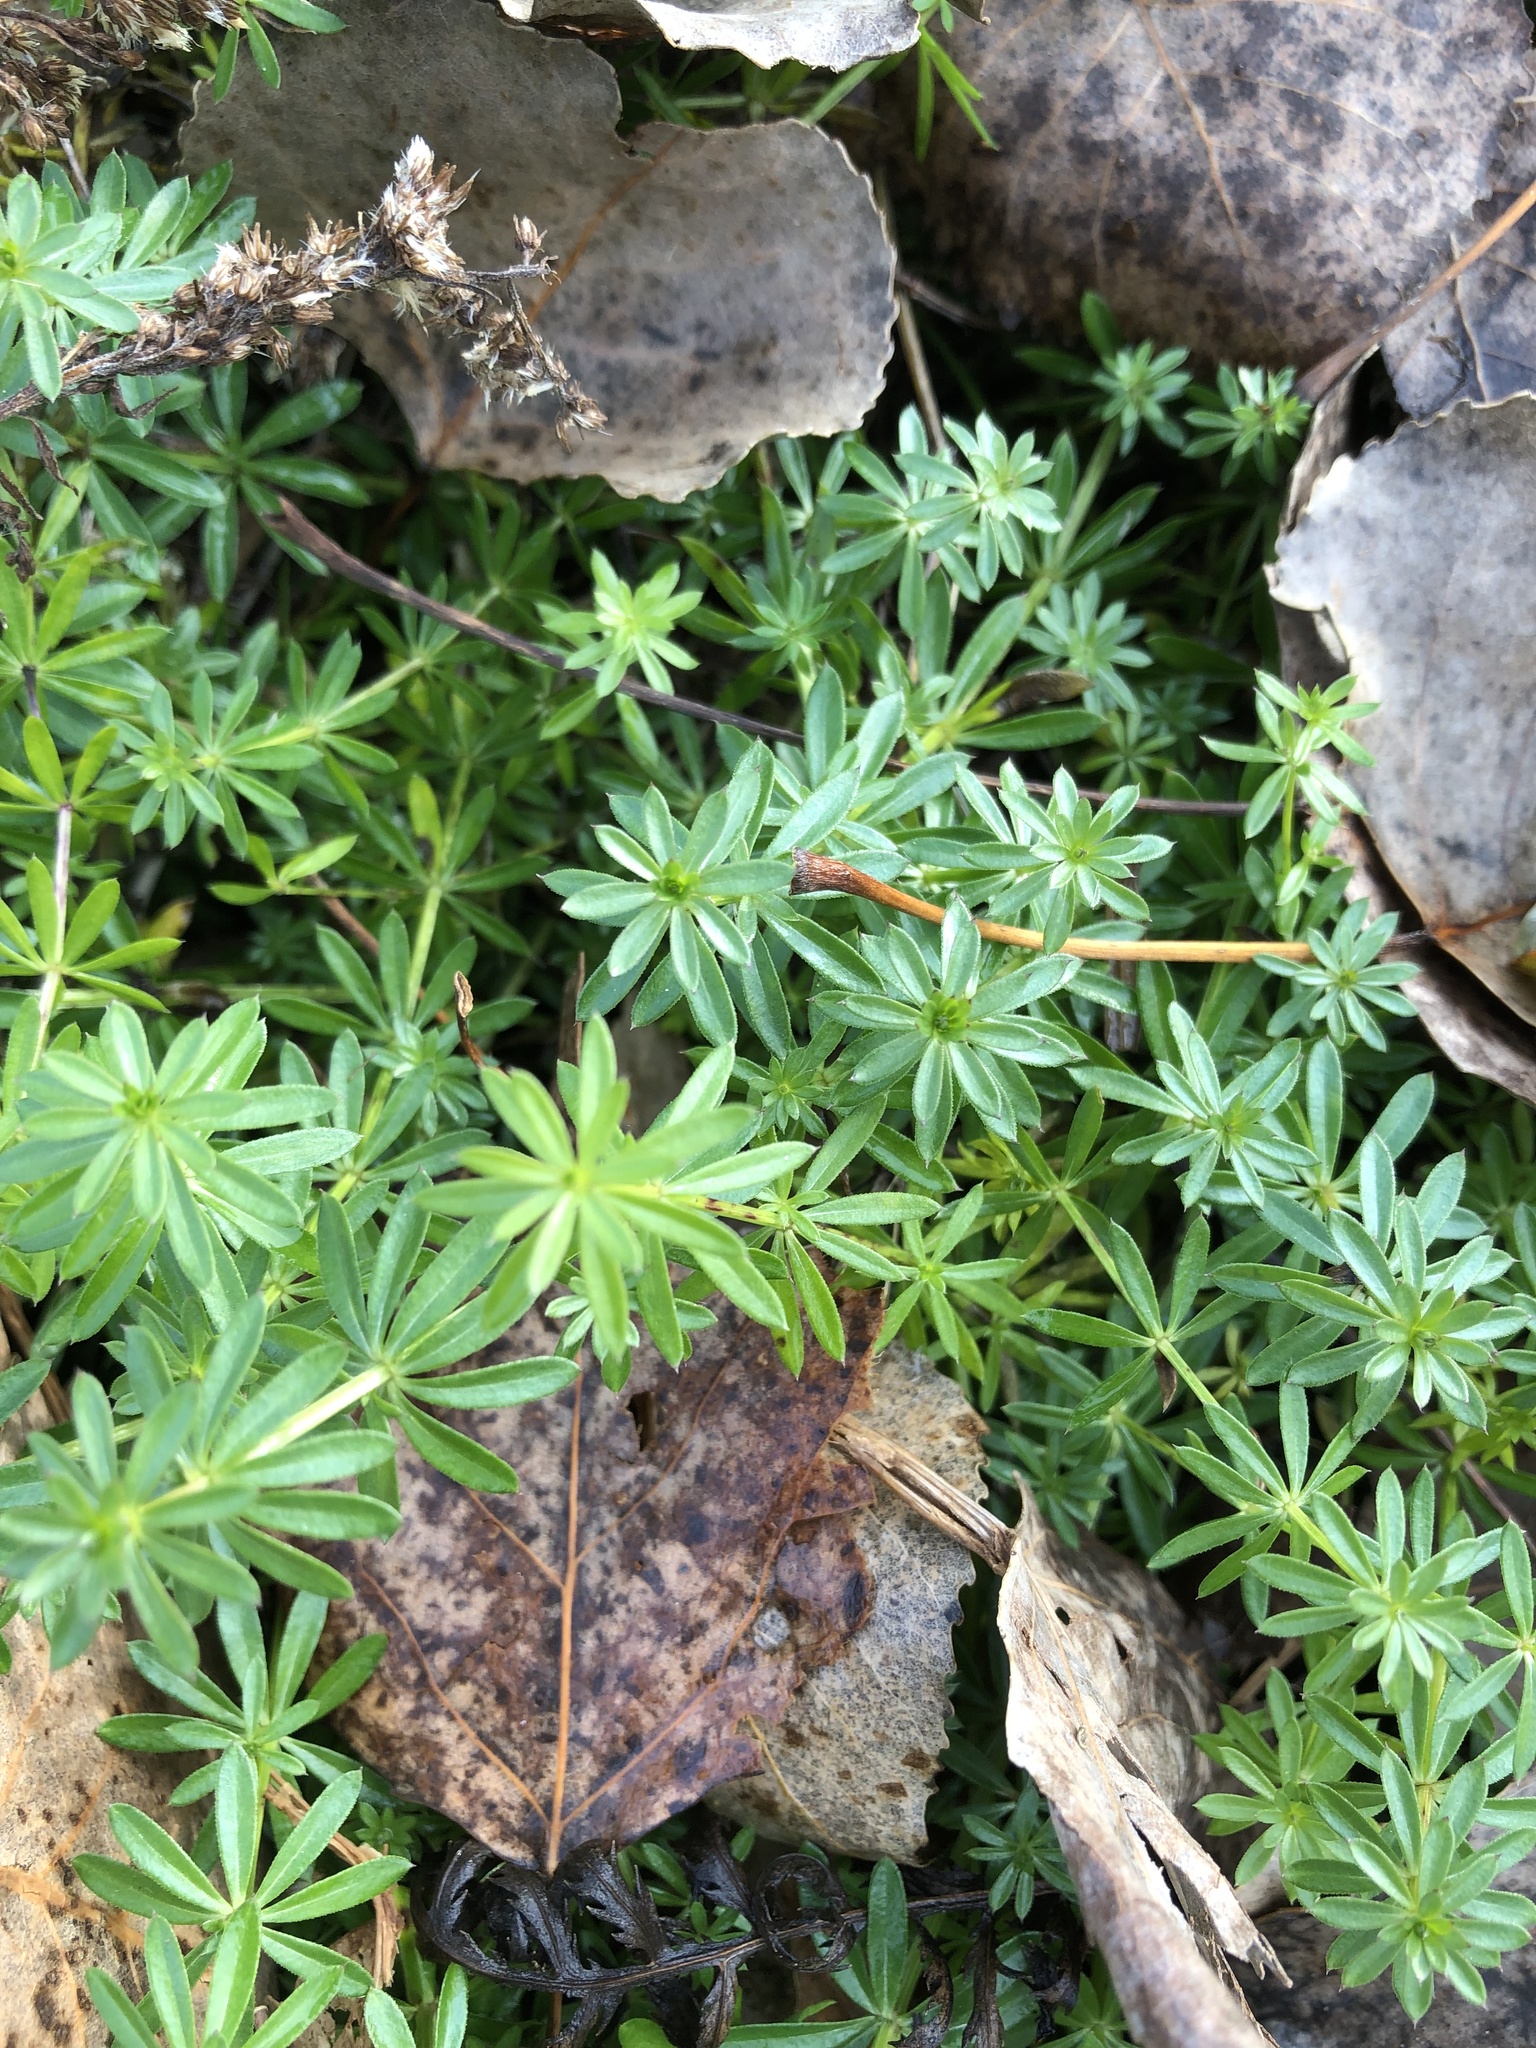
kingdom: Plantae
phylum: Tracheophyta
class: Magnoliopsida
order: Gentianales
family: Rubiaceae
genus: Galium
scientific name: Galium mollugo
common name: Hedge bedstraw
